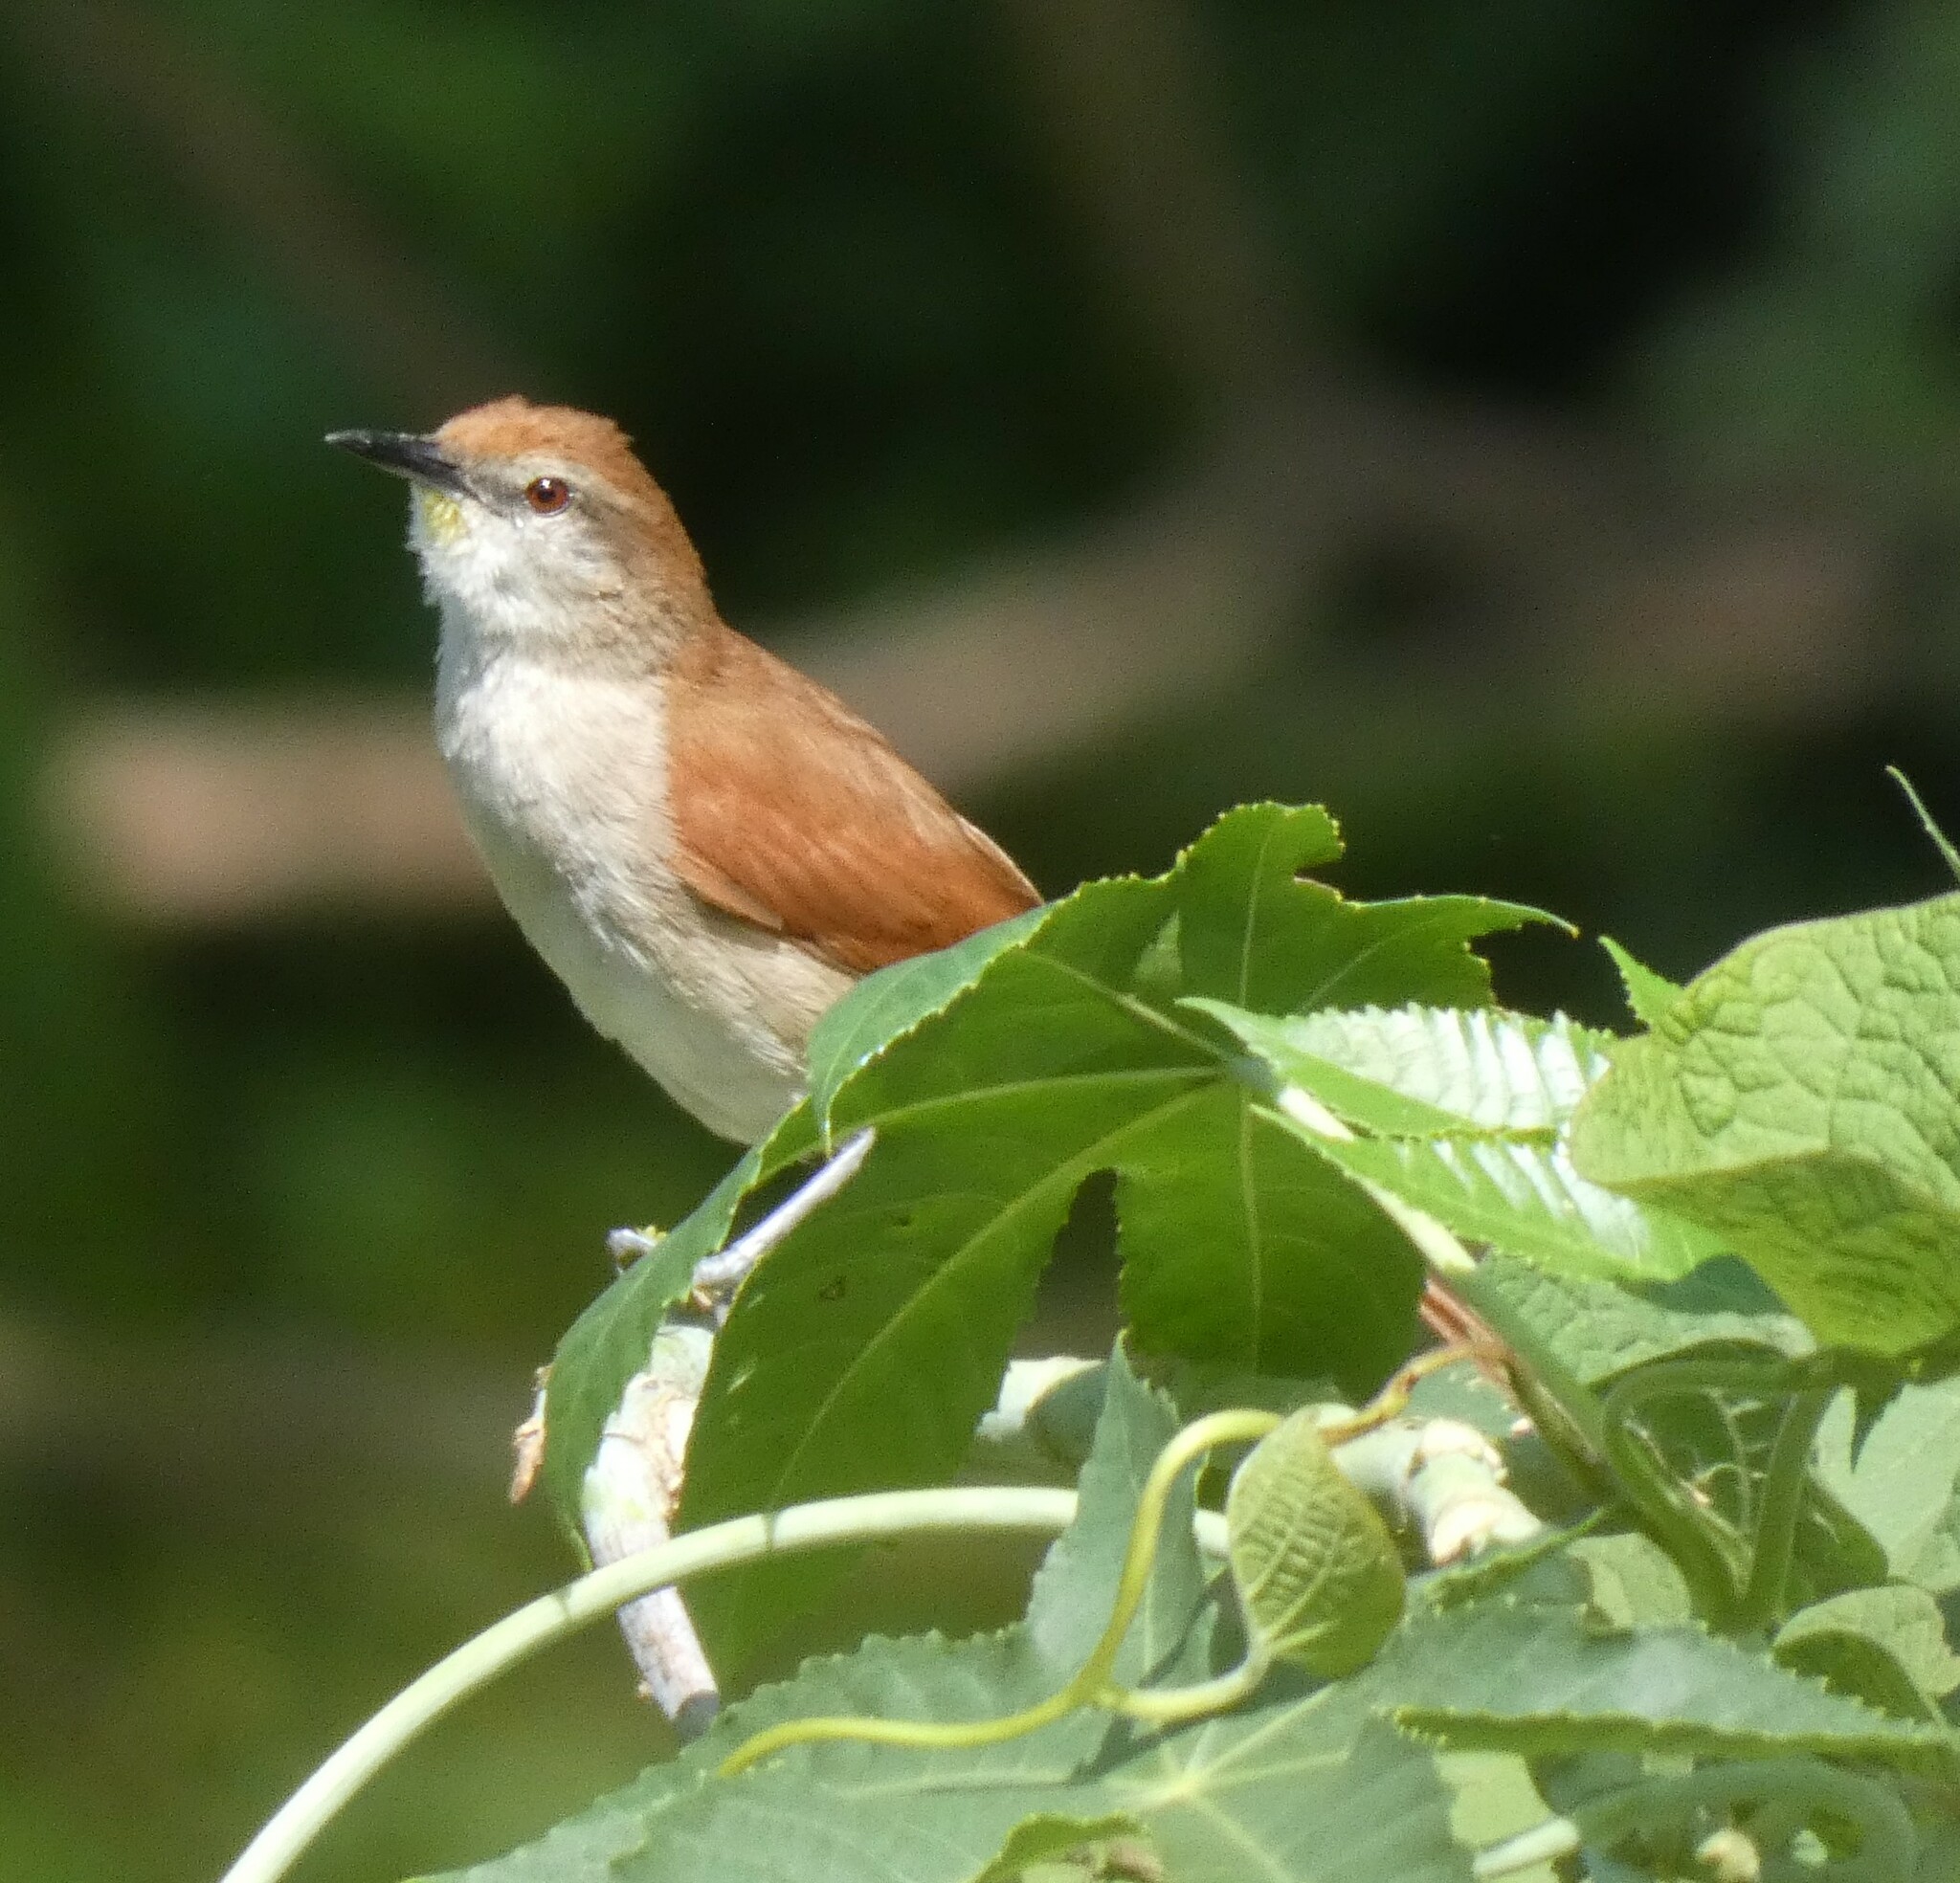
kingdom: Animalia
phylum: Chordata
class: Aves
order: Passeriformes
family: Furnariidae
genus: Certhiaxis
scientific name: Certhiaxis cinnamomeus
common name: Yellow-chinned spinetail
